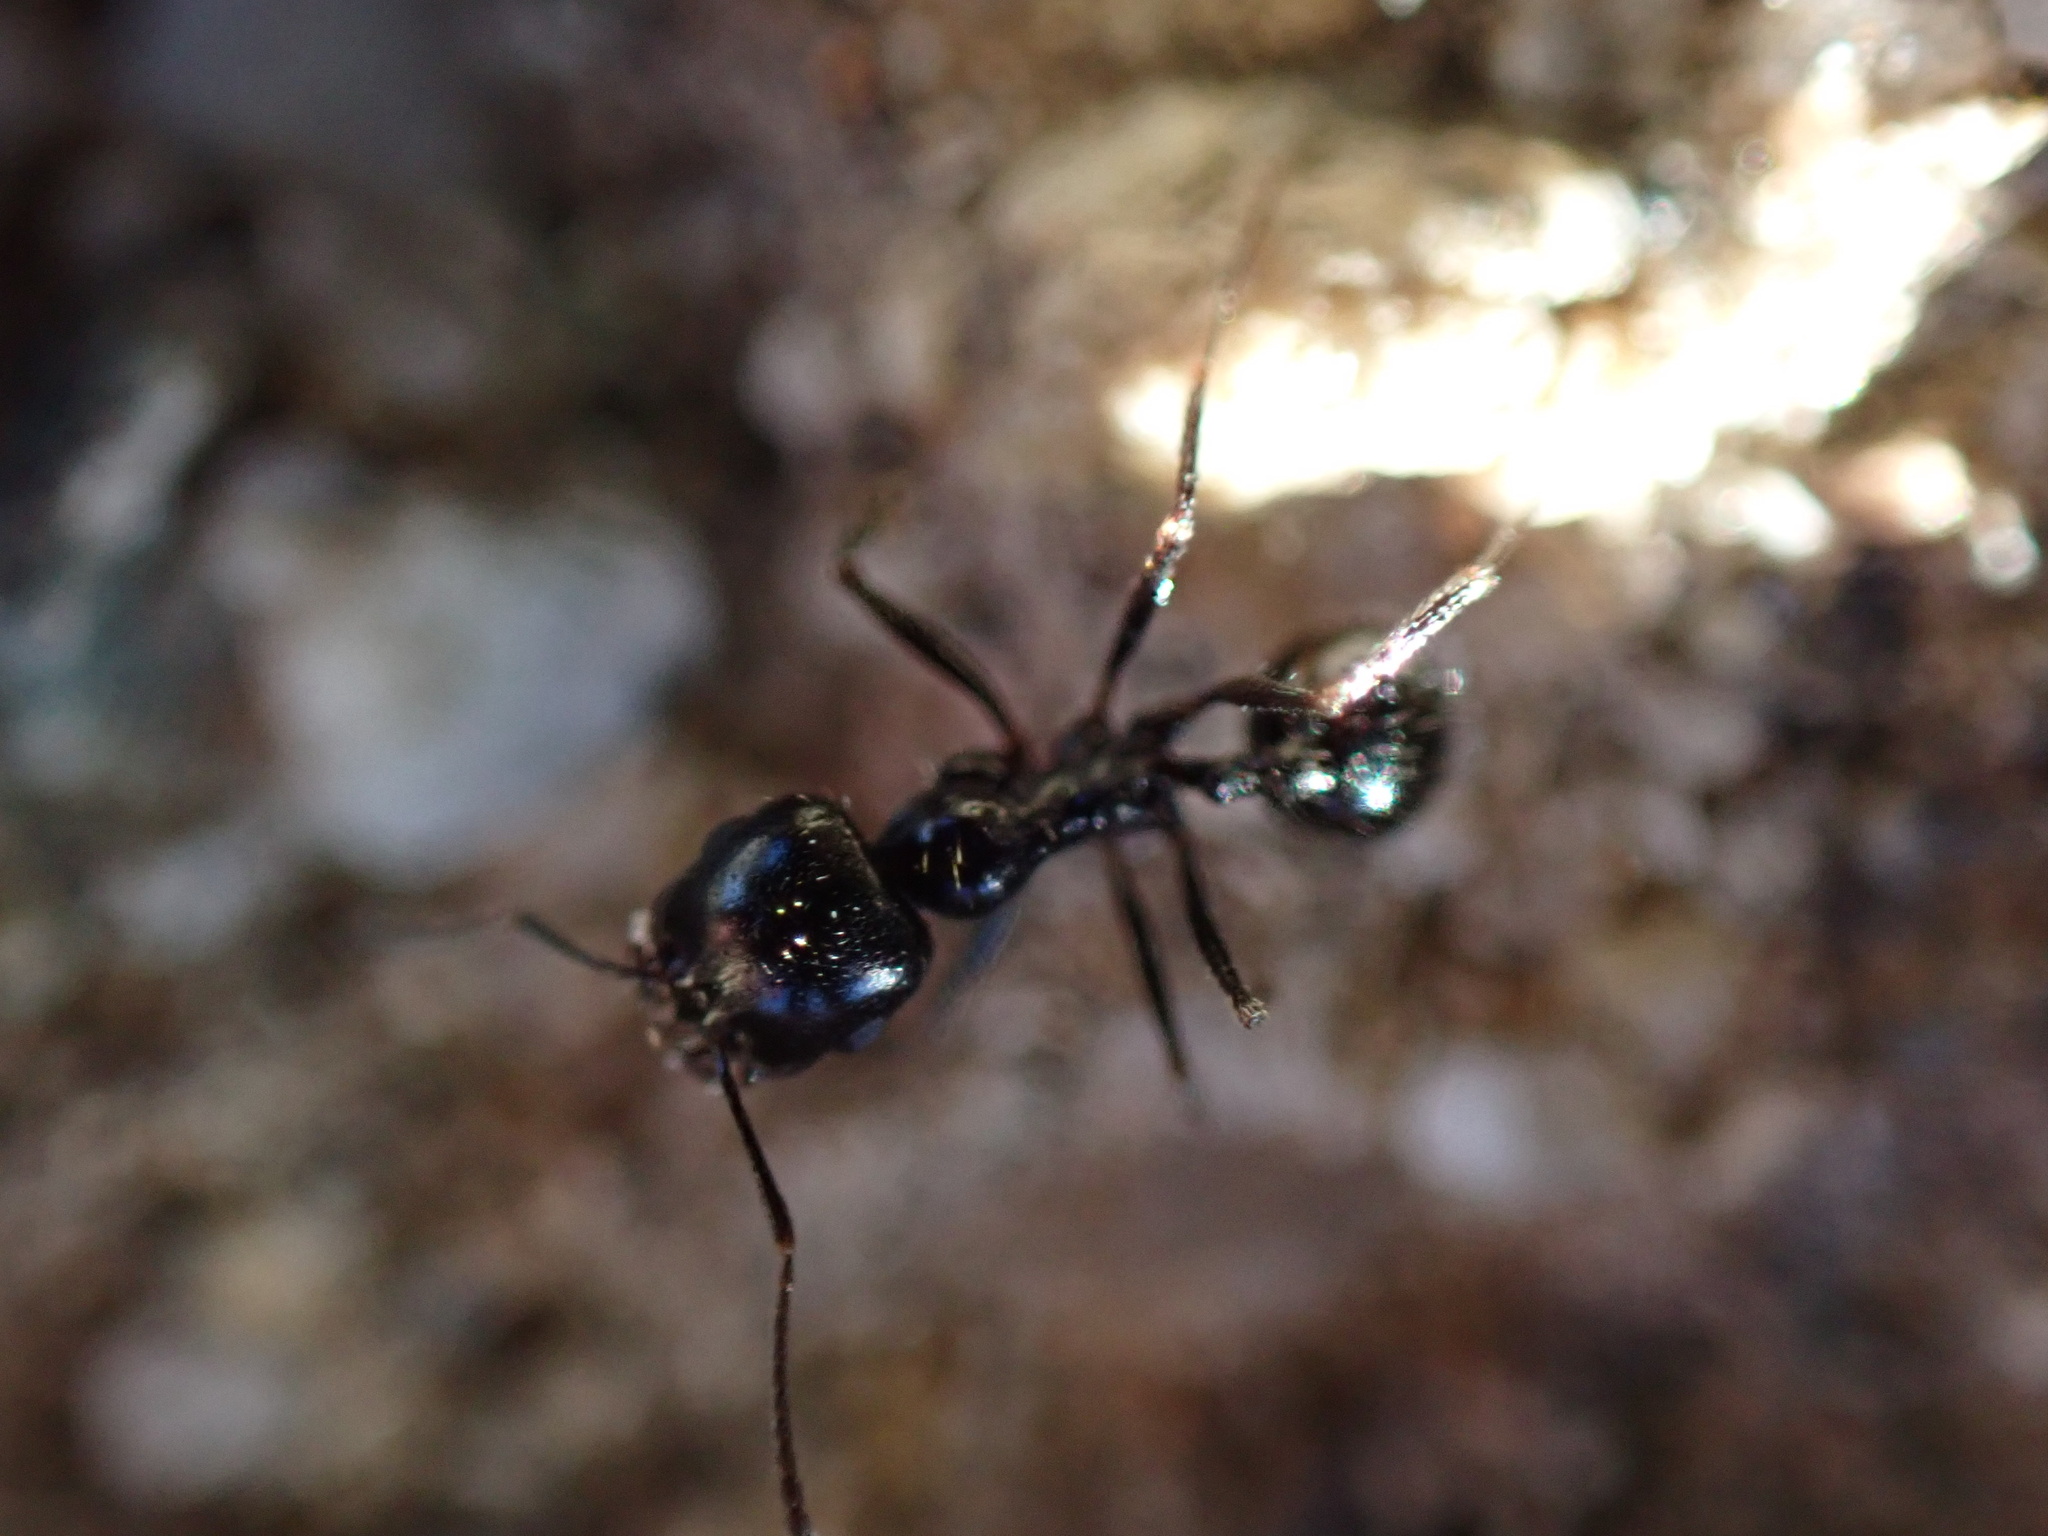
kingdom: Animalia
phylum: Arthropoda
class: Insecta
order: Hymenoptera
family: Formicidae
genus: Messor
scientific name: Messor pergandei
